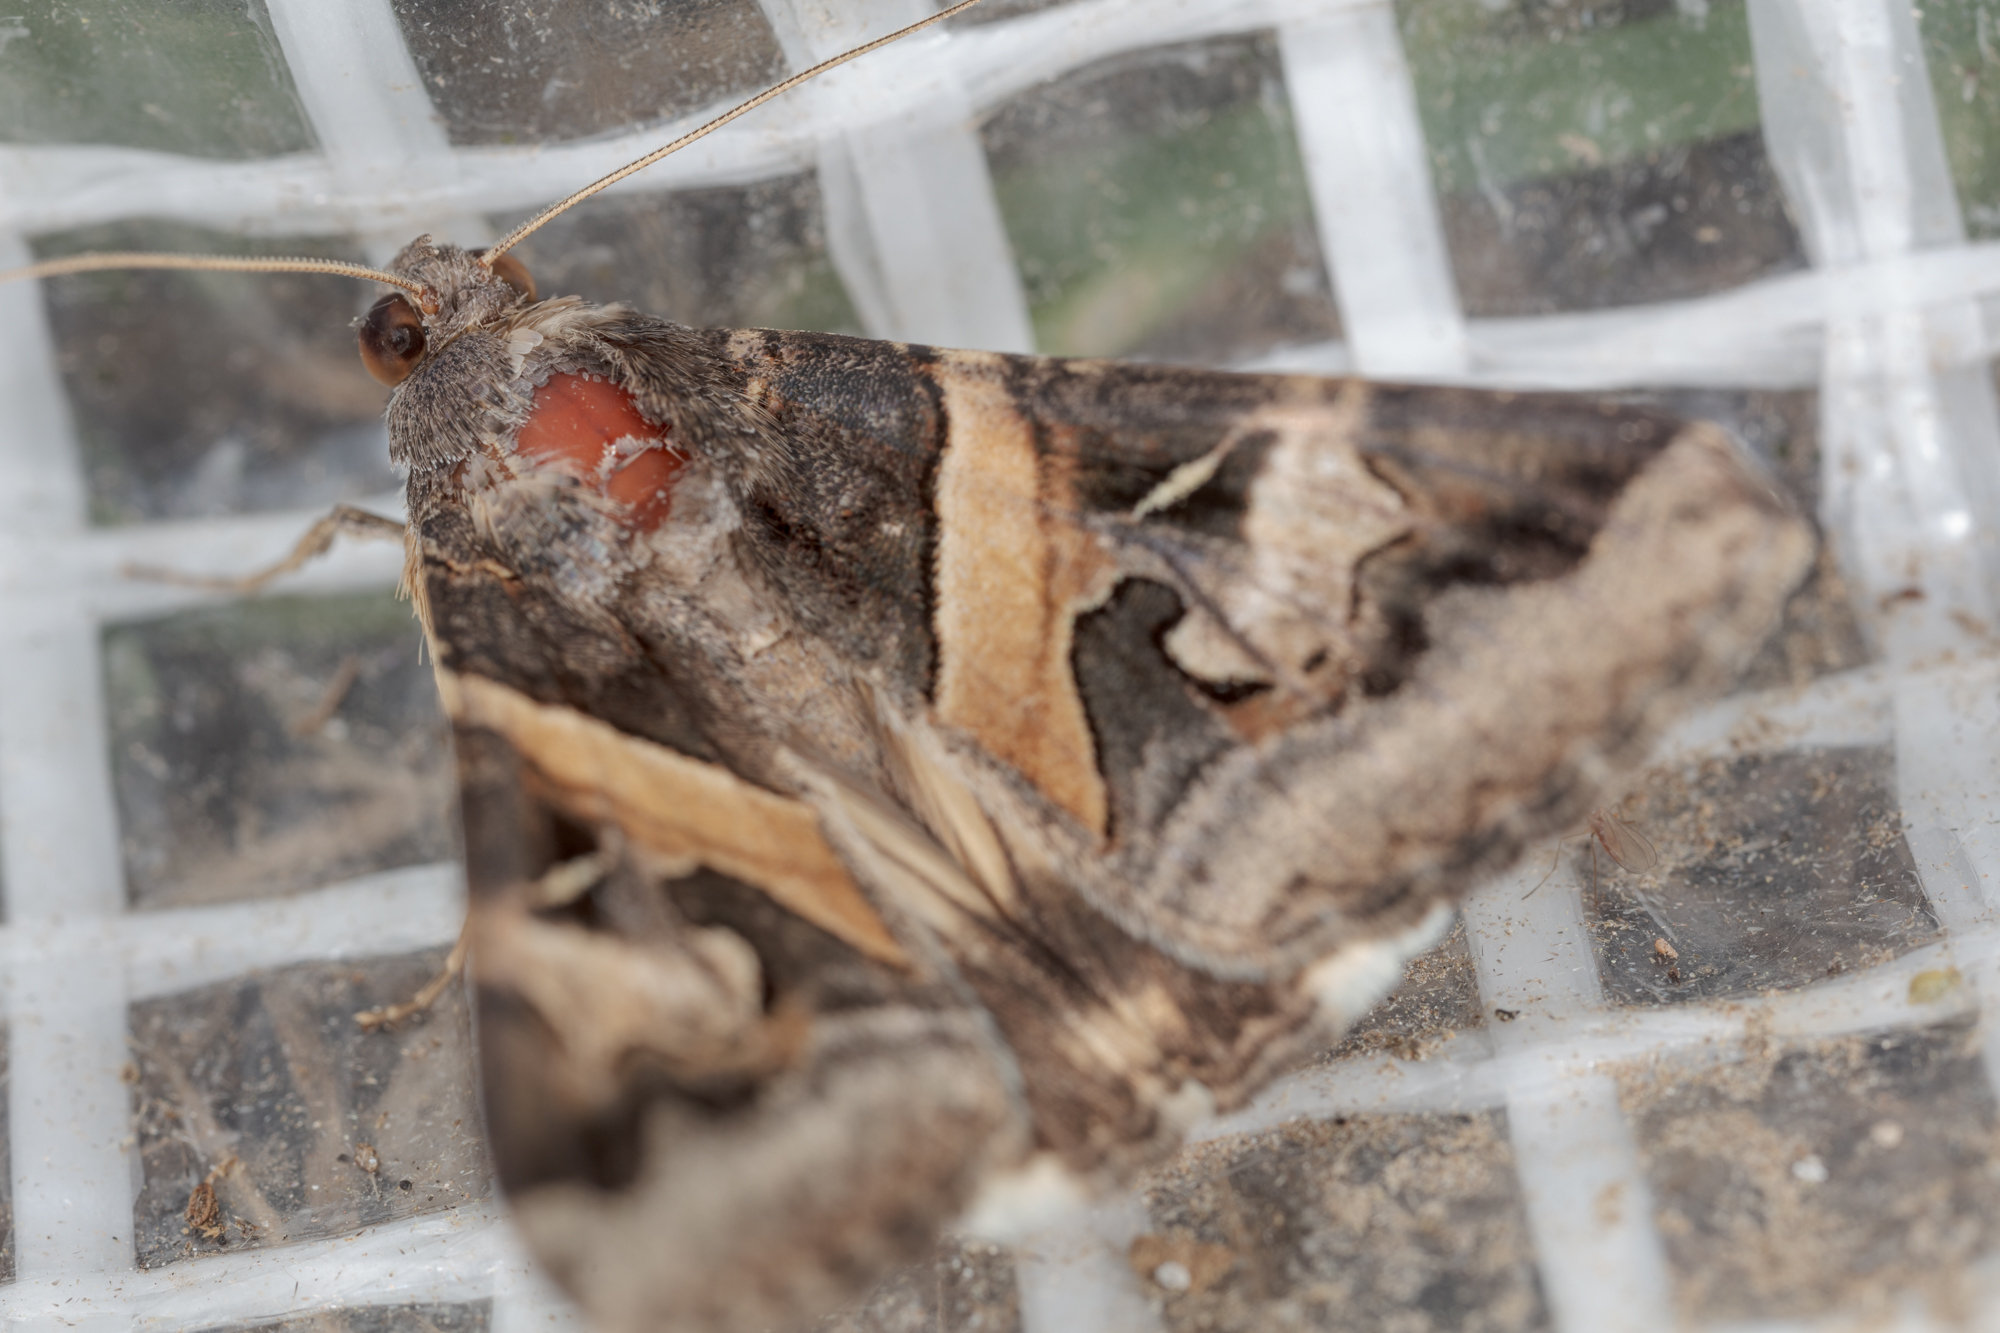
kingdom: Animalia
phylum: Arthropoda
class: Insecta
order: Lepidoptera
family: Erebidae
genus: Melipotis
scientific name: Melipotis indomita
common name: Moth
